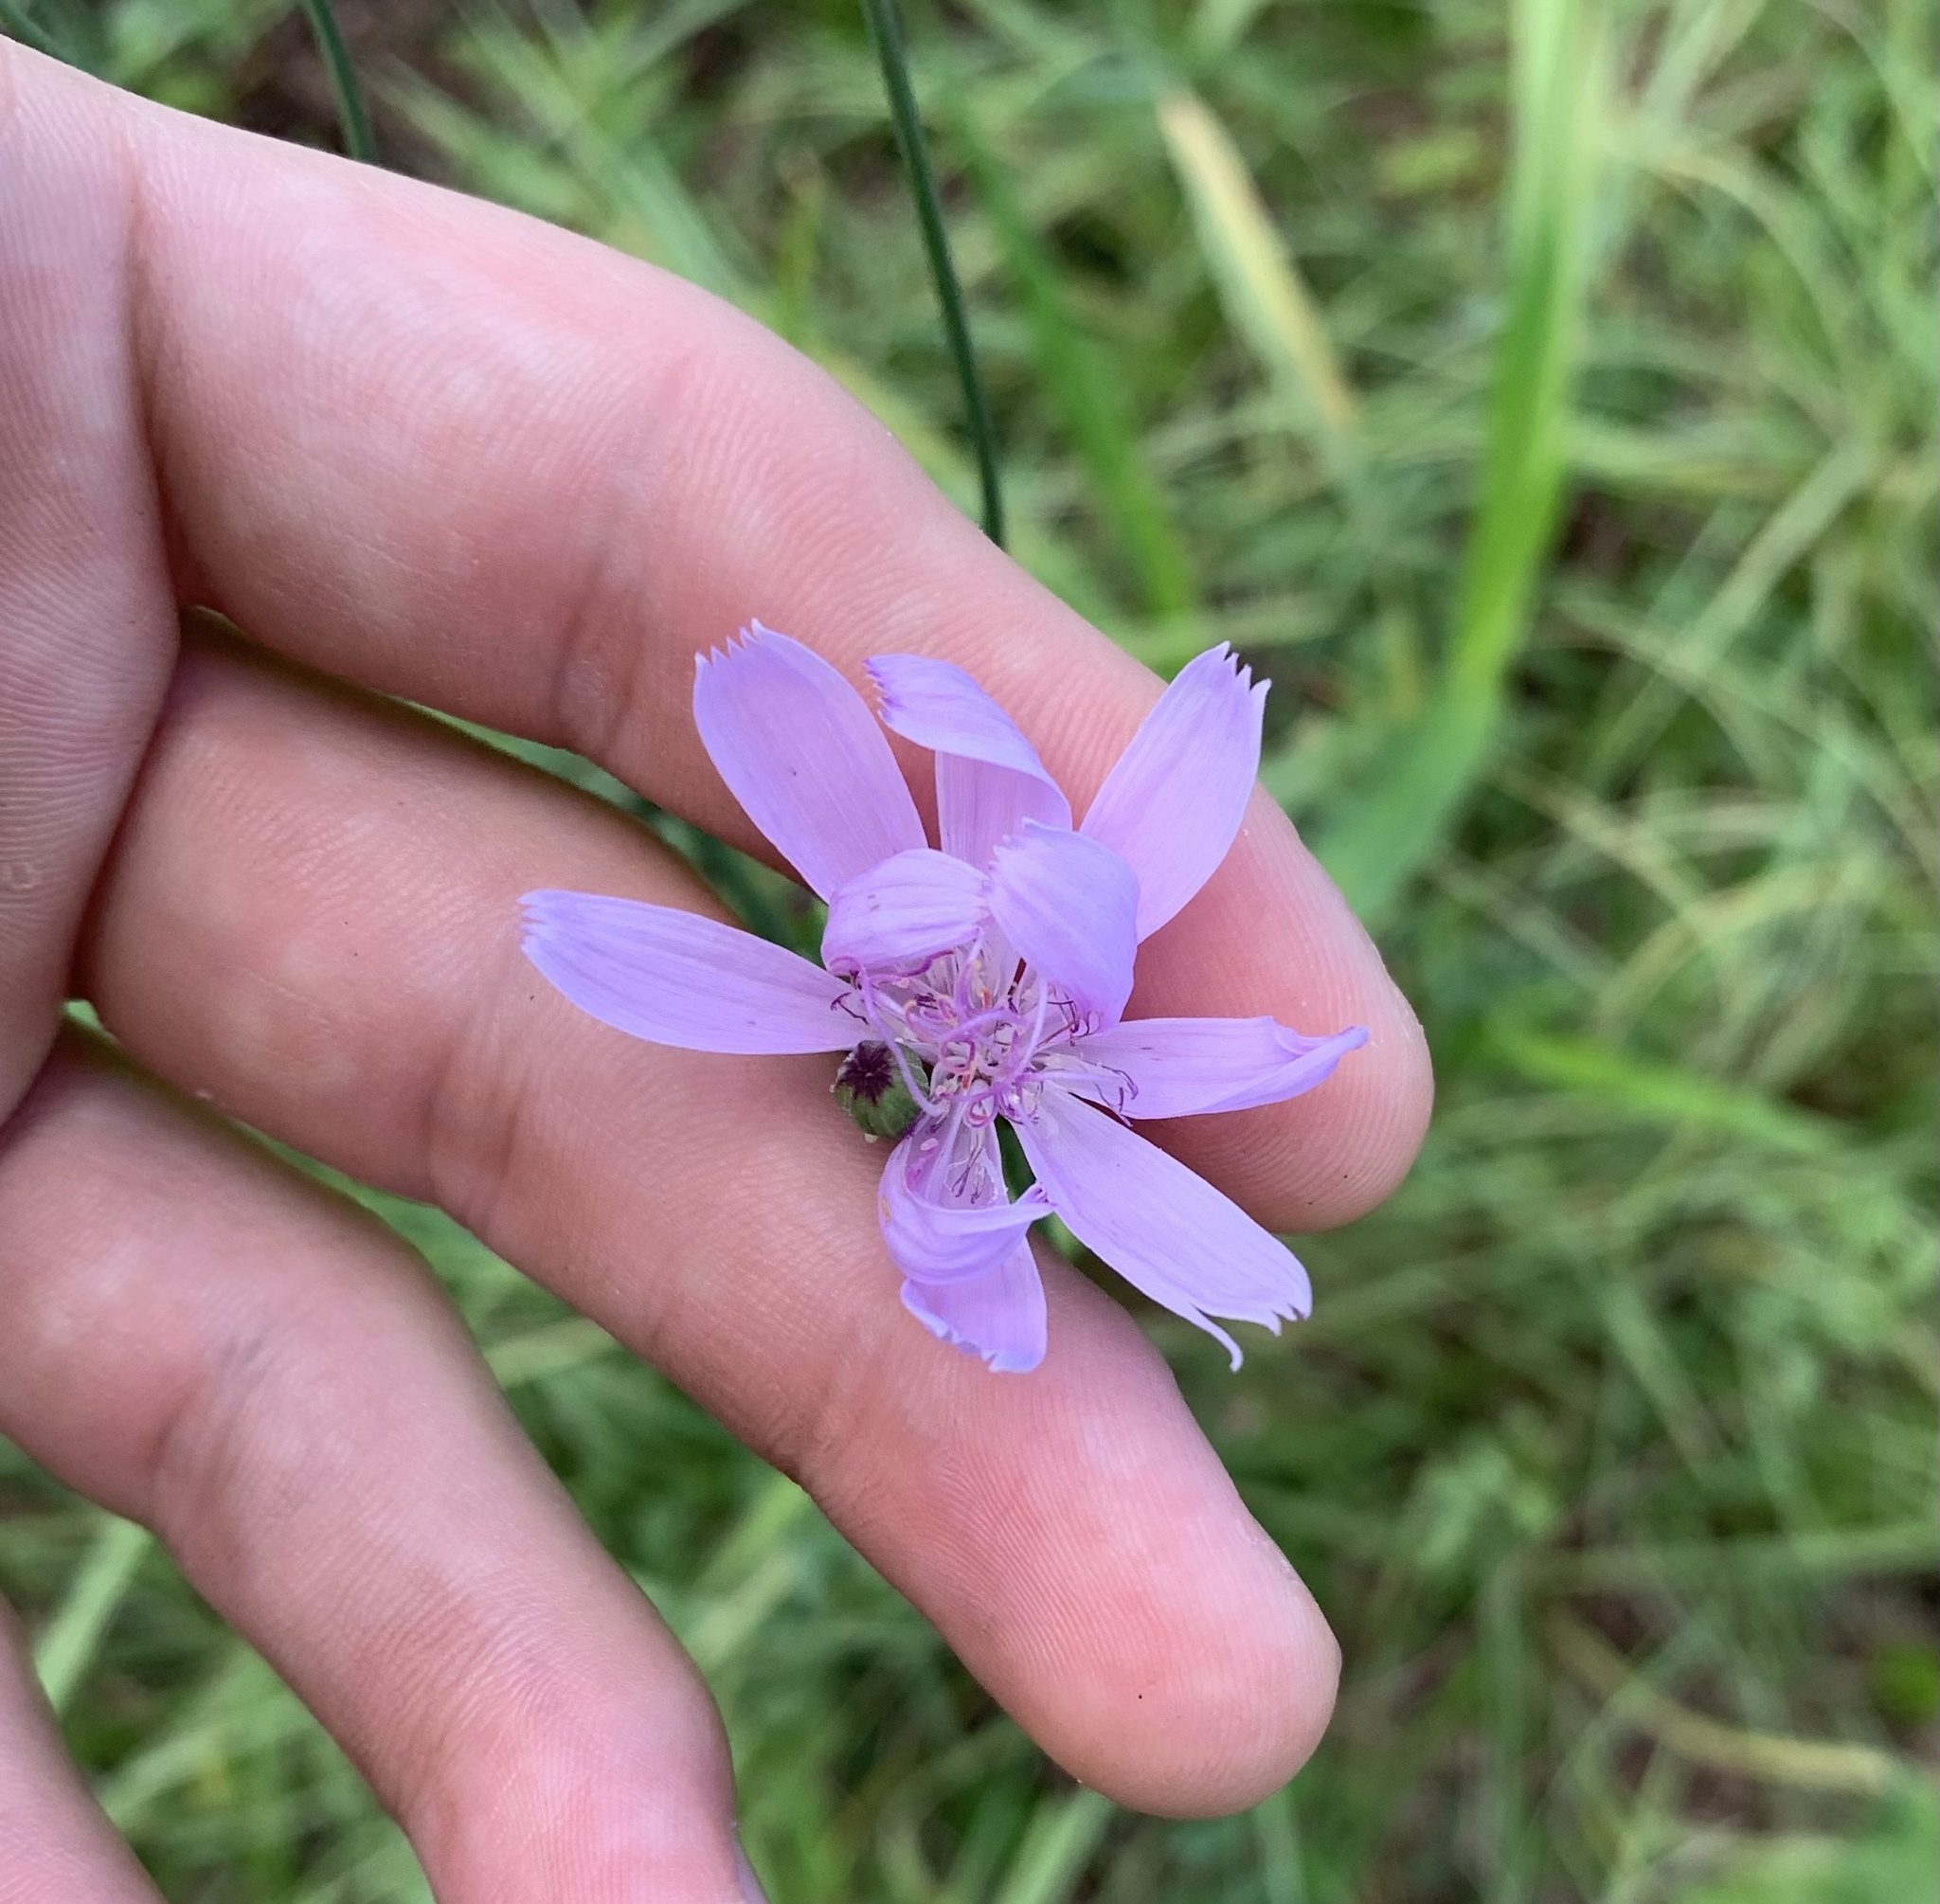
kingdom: Plantae
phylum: Tracheophyta
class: Magnoliopsida
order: Asterales
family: Asteraceae
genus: Lygodesmia
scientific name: Lygodesmia aphylla
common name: Rose-rush
